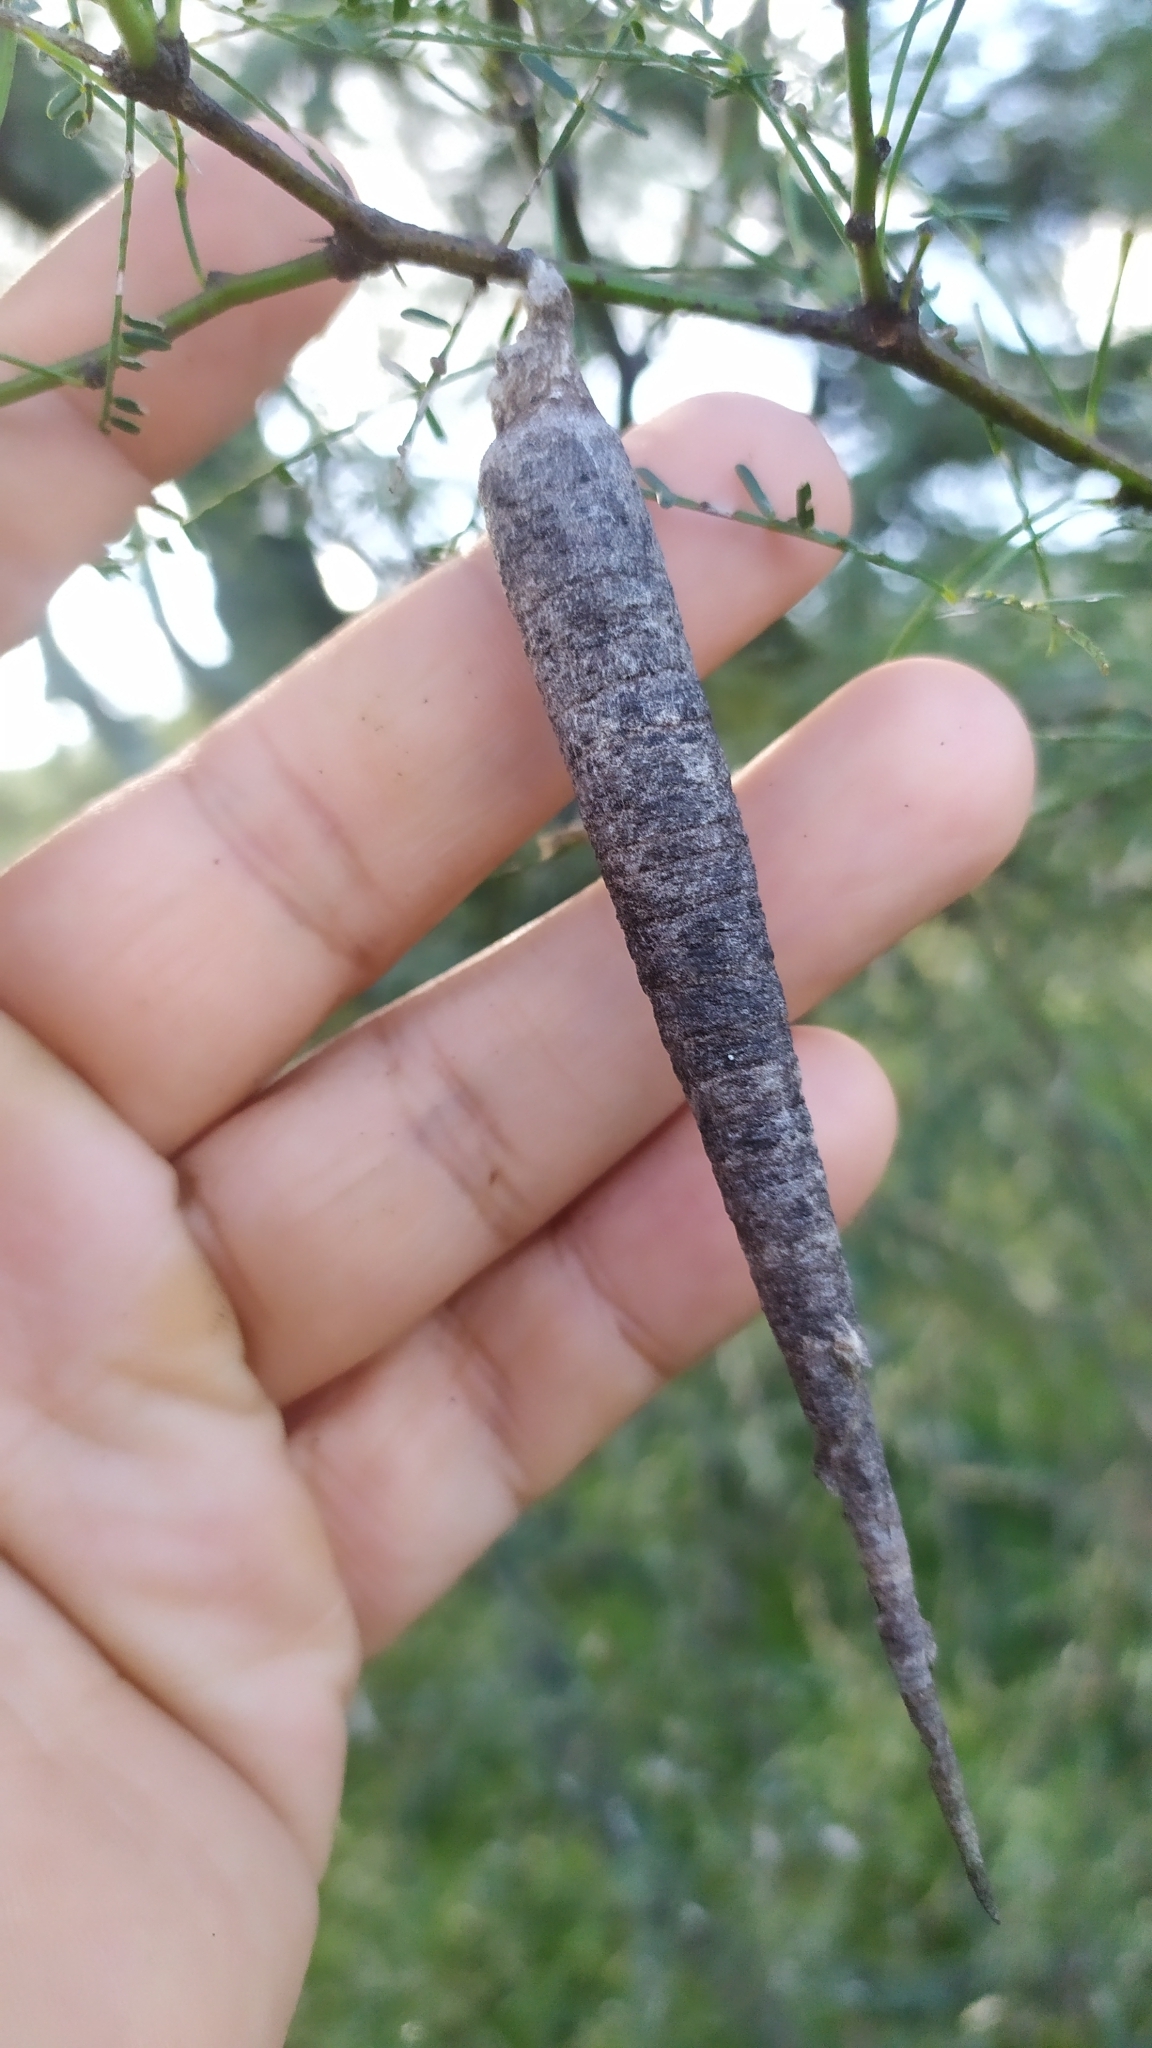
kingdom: Animalia
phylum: Arthropoda
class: Insecta
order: Lepidoptera
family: Psychidae
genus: Oiketicus
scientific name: Oiketicus geyeri
